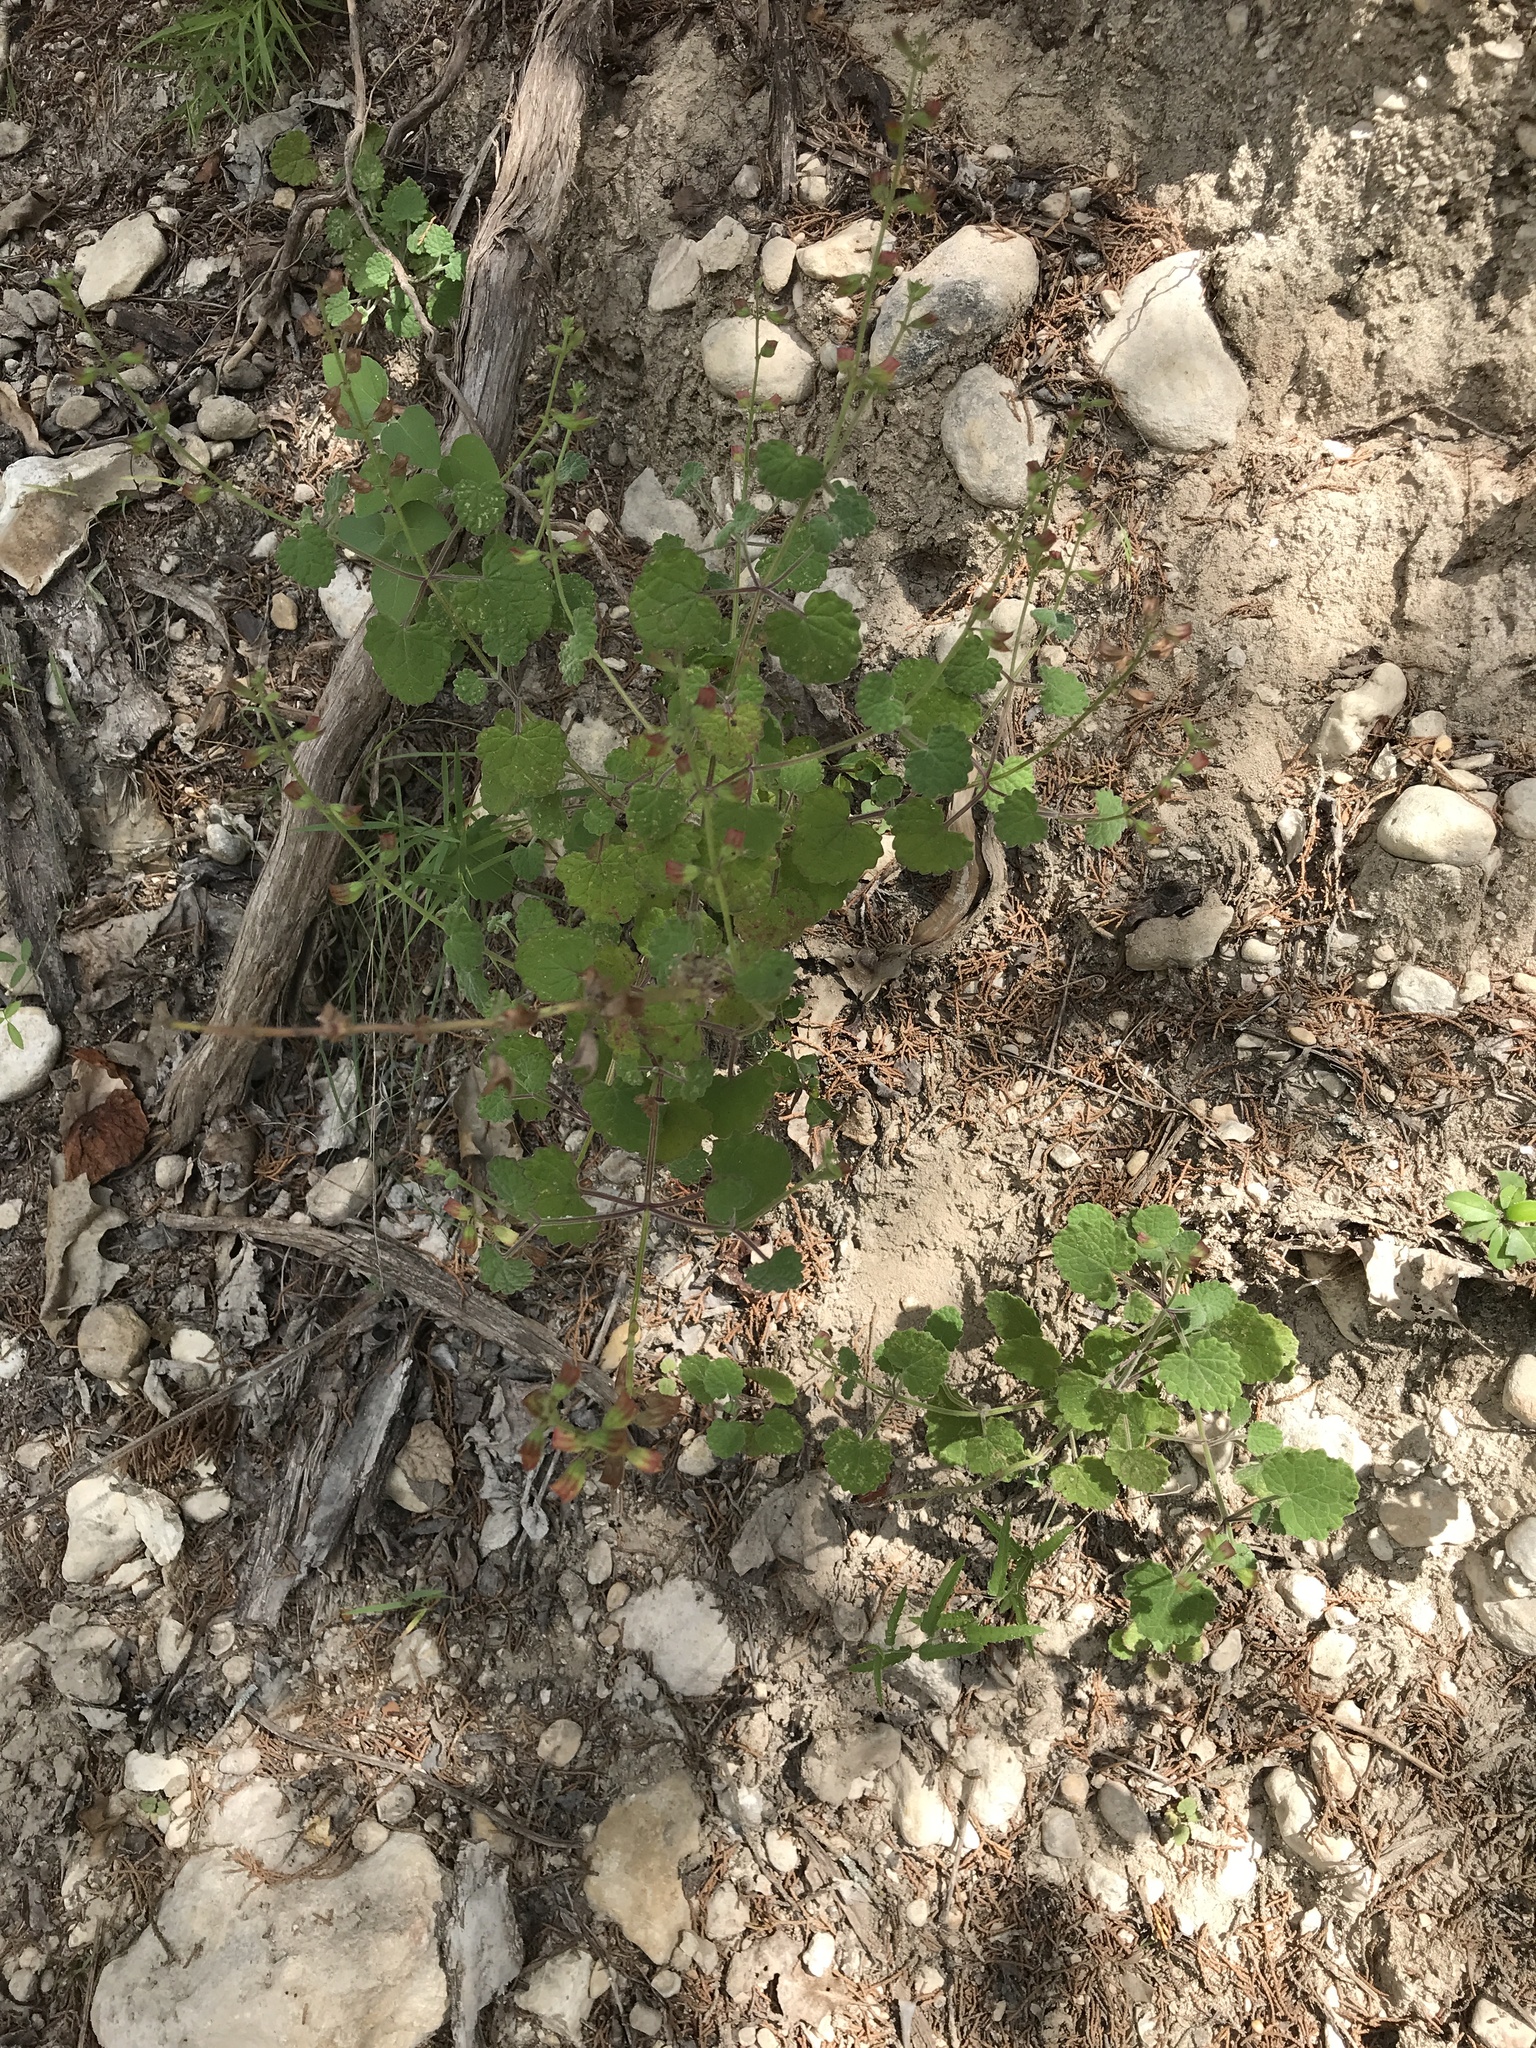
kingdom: Plantae
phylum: Tracheophyta
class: Magnoliopsida
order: Lamiales
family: Lamiaceae
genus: Salvia
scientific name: Salvia roemeriana
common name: Cedar sage
